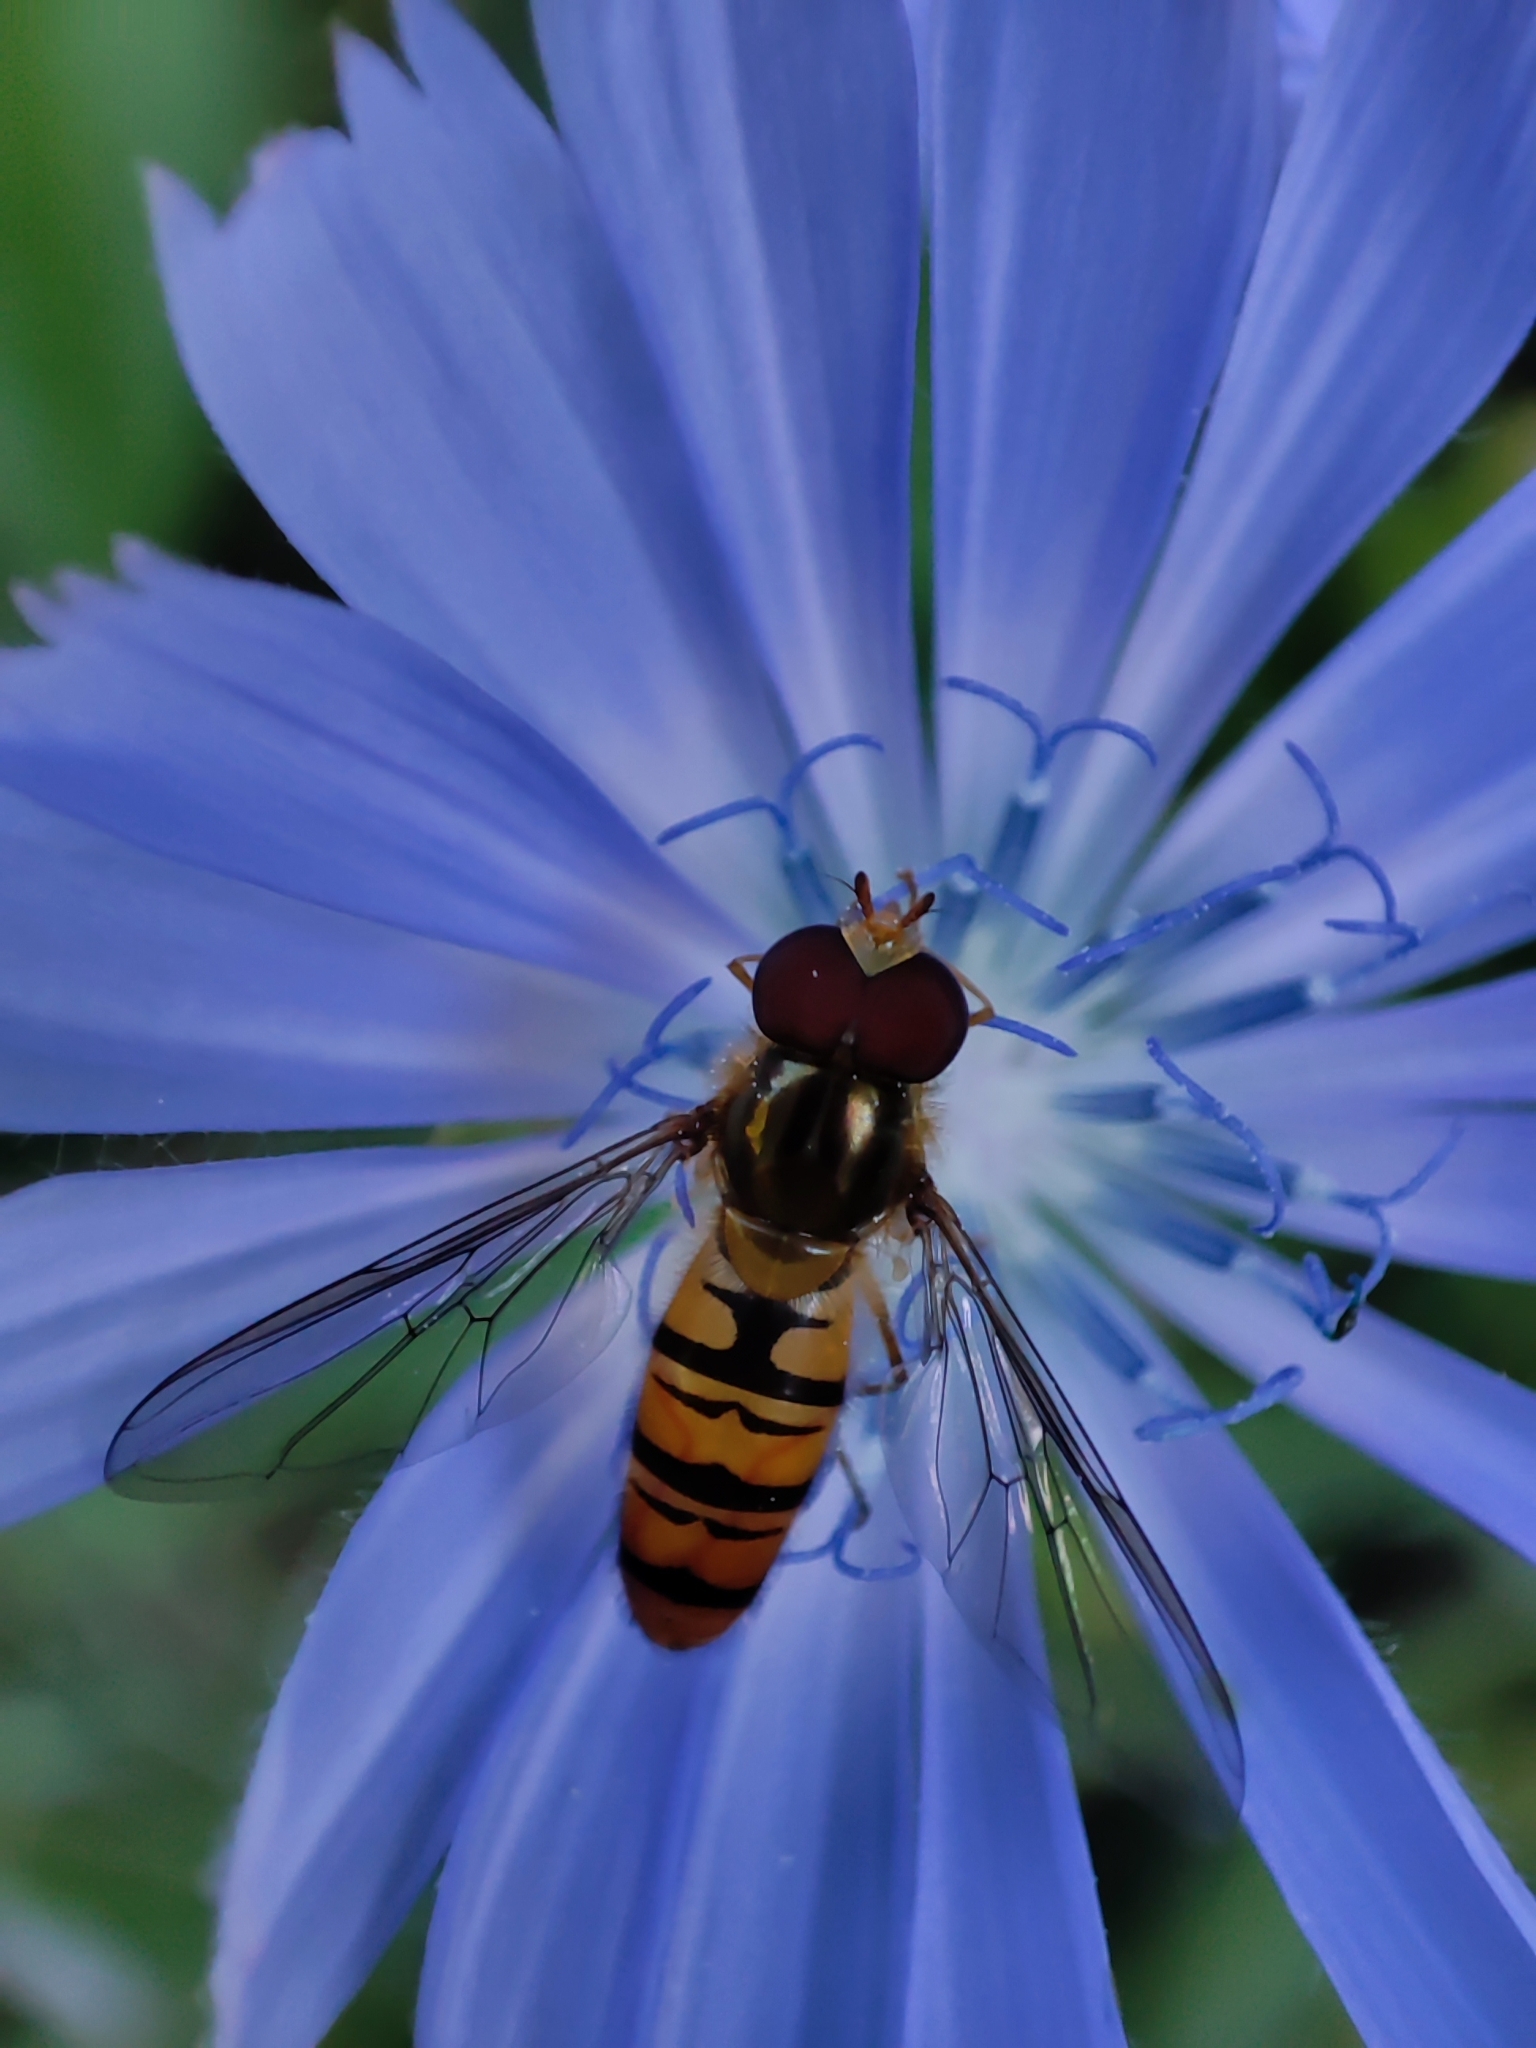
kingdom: Animalia
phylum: Arthropoda
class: Insecta
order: Diptera
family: Syrphidae
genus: Episyrphus
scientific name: Episyrphus balteatus
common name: Marmalade hoverfly
